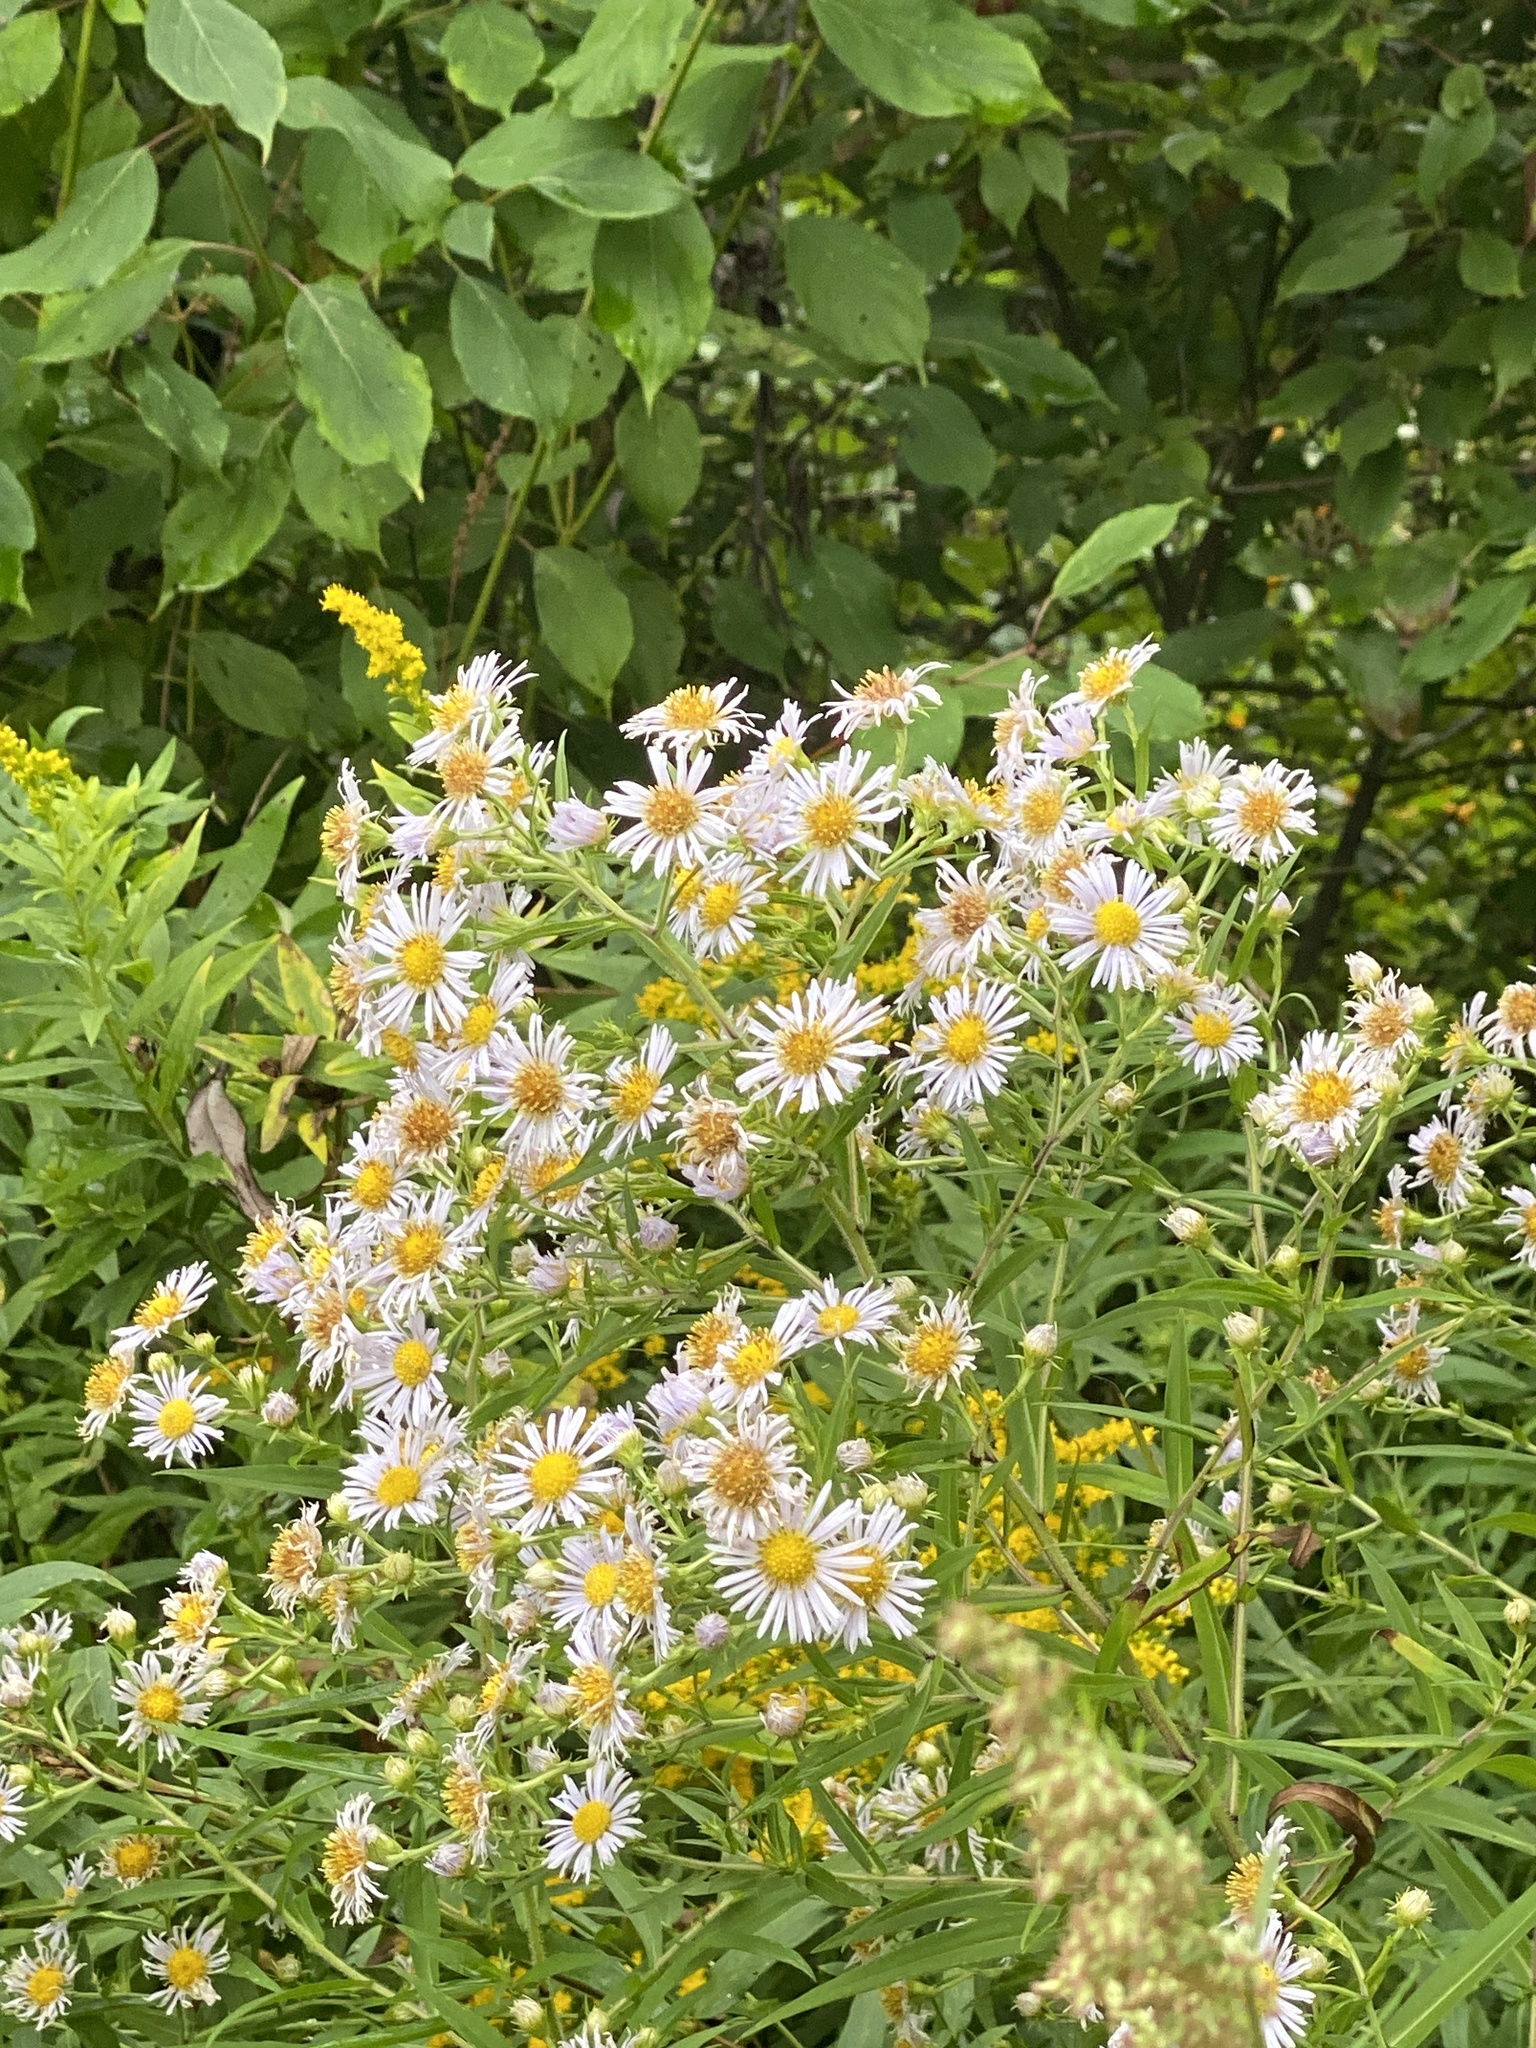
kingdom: Plantae
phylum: Tracheophyta
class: Magnoliopsida
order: Asterales
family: Asteraceae
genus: Symphyotrichum
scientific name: Symphyotrichum lanceolatum
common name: Panicled aster
